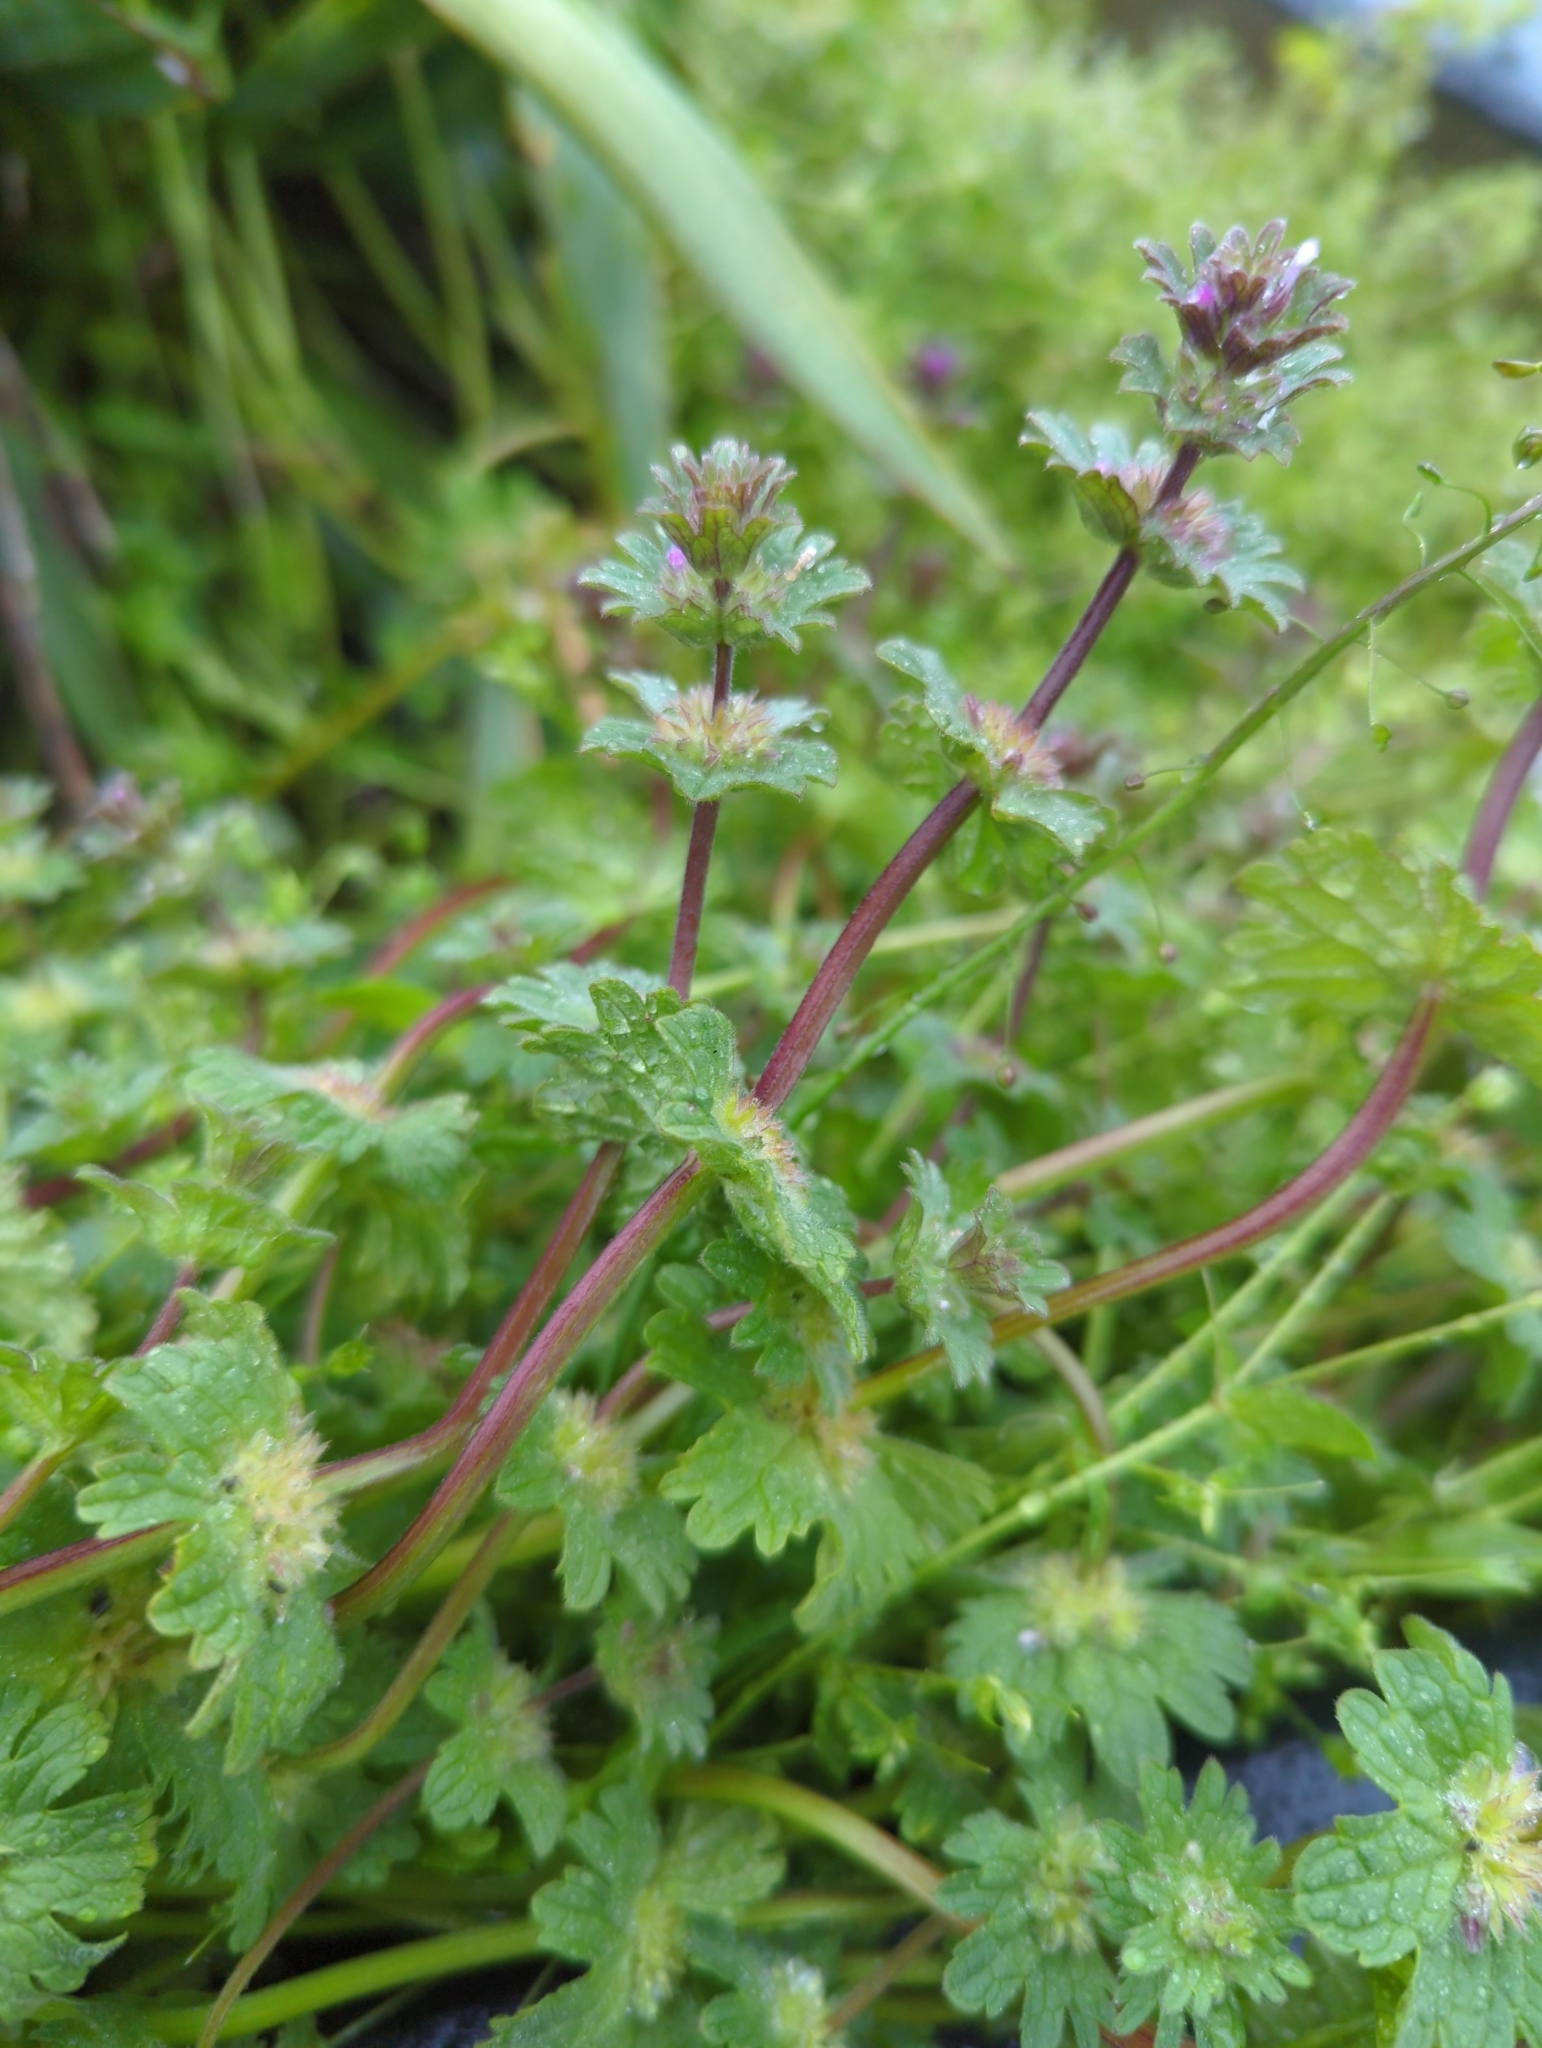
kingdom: Plantae
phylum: Tracheophyta
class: Magnoliopsida
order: Lamiales
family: Lamiaceae
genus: Lamium
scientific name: Lamium amplexicaule
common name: Henbit dead-nettle
